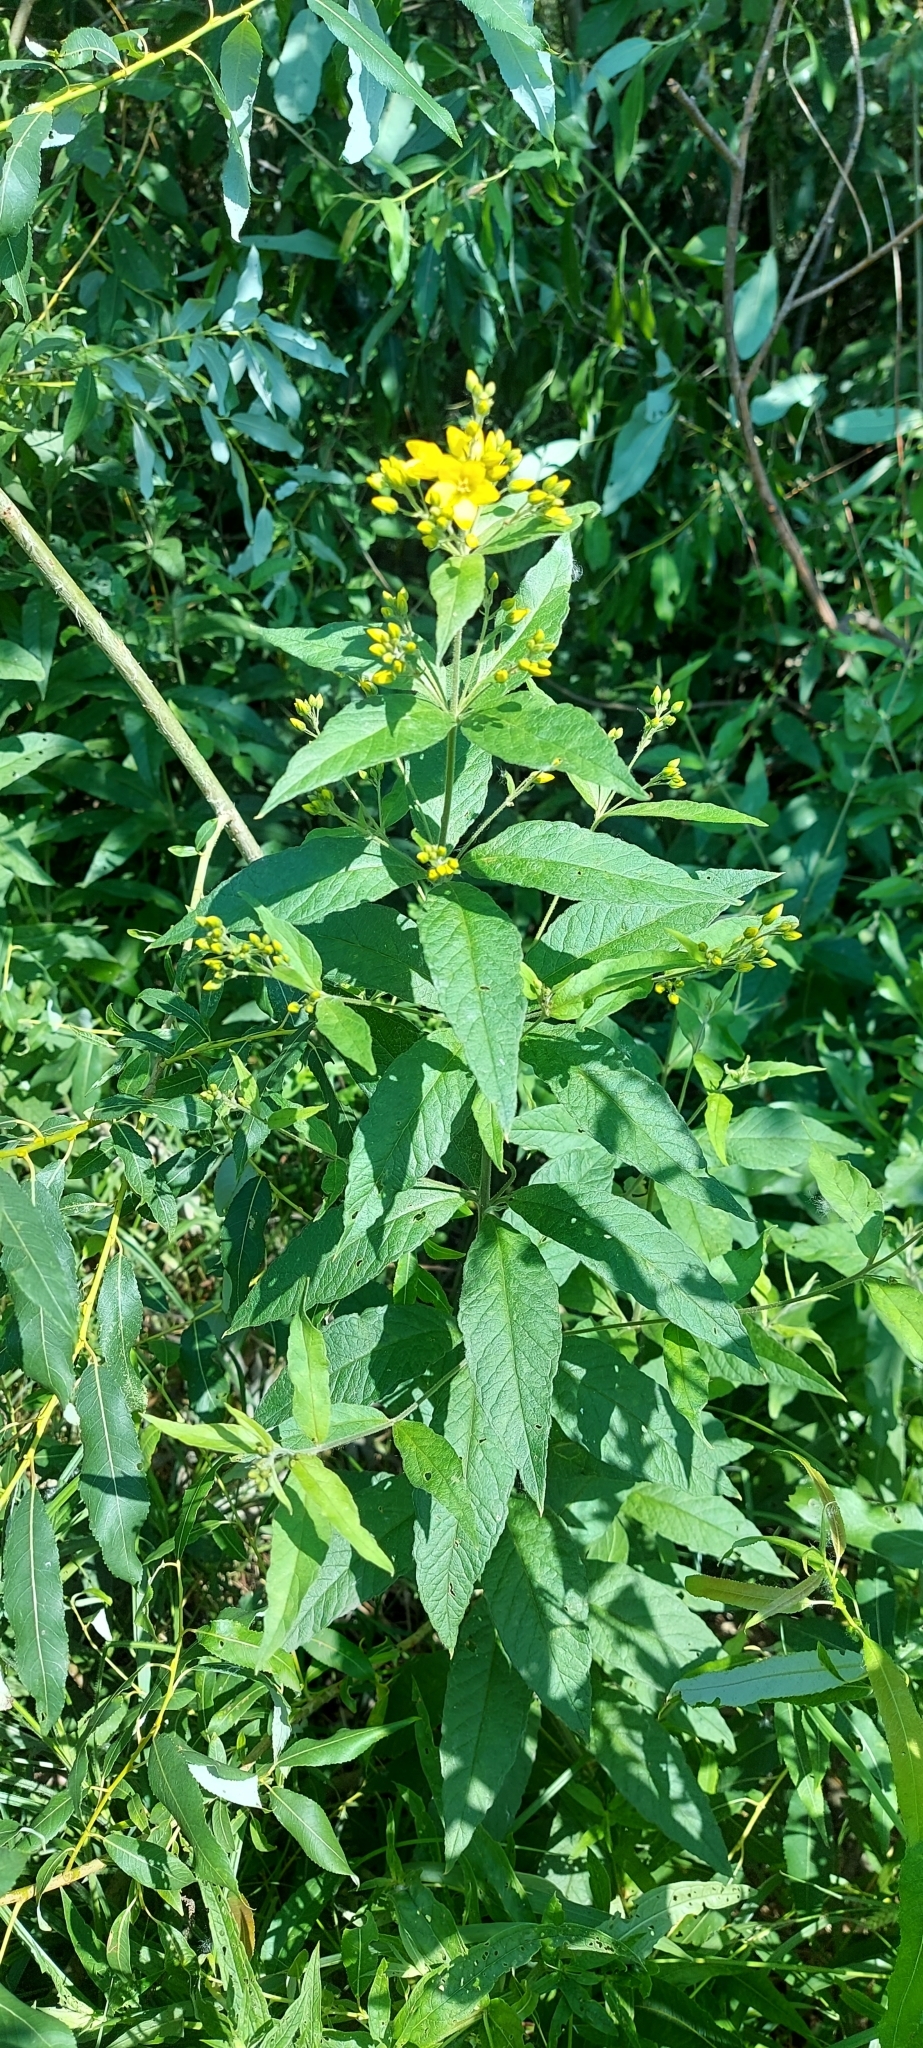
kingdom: Plantae
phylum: Tracheophyta
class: Magnoliopsida
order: Ericales
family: Primulaceae
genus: Lysimachia
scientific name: Lysimachia vulgaris
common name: Yellow loosestrife
